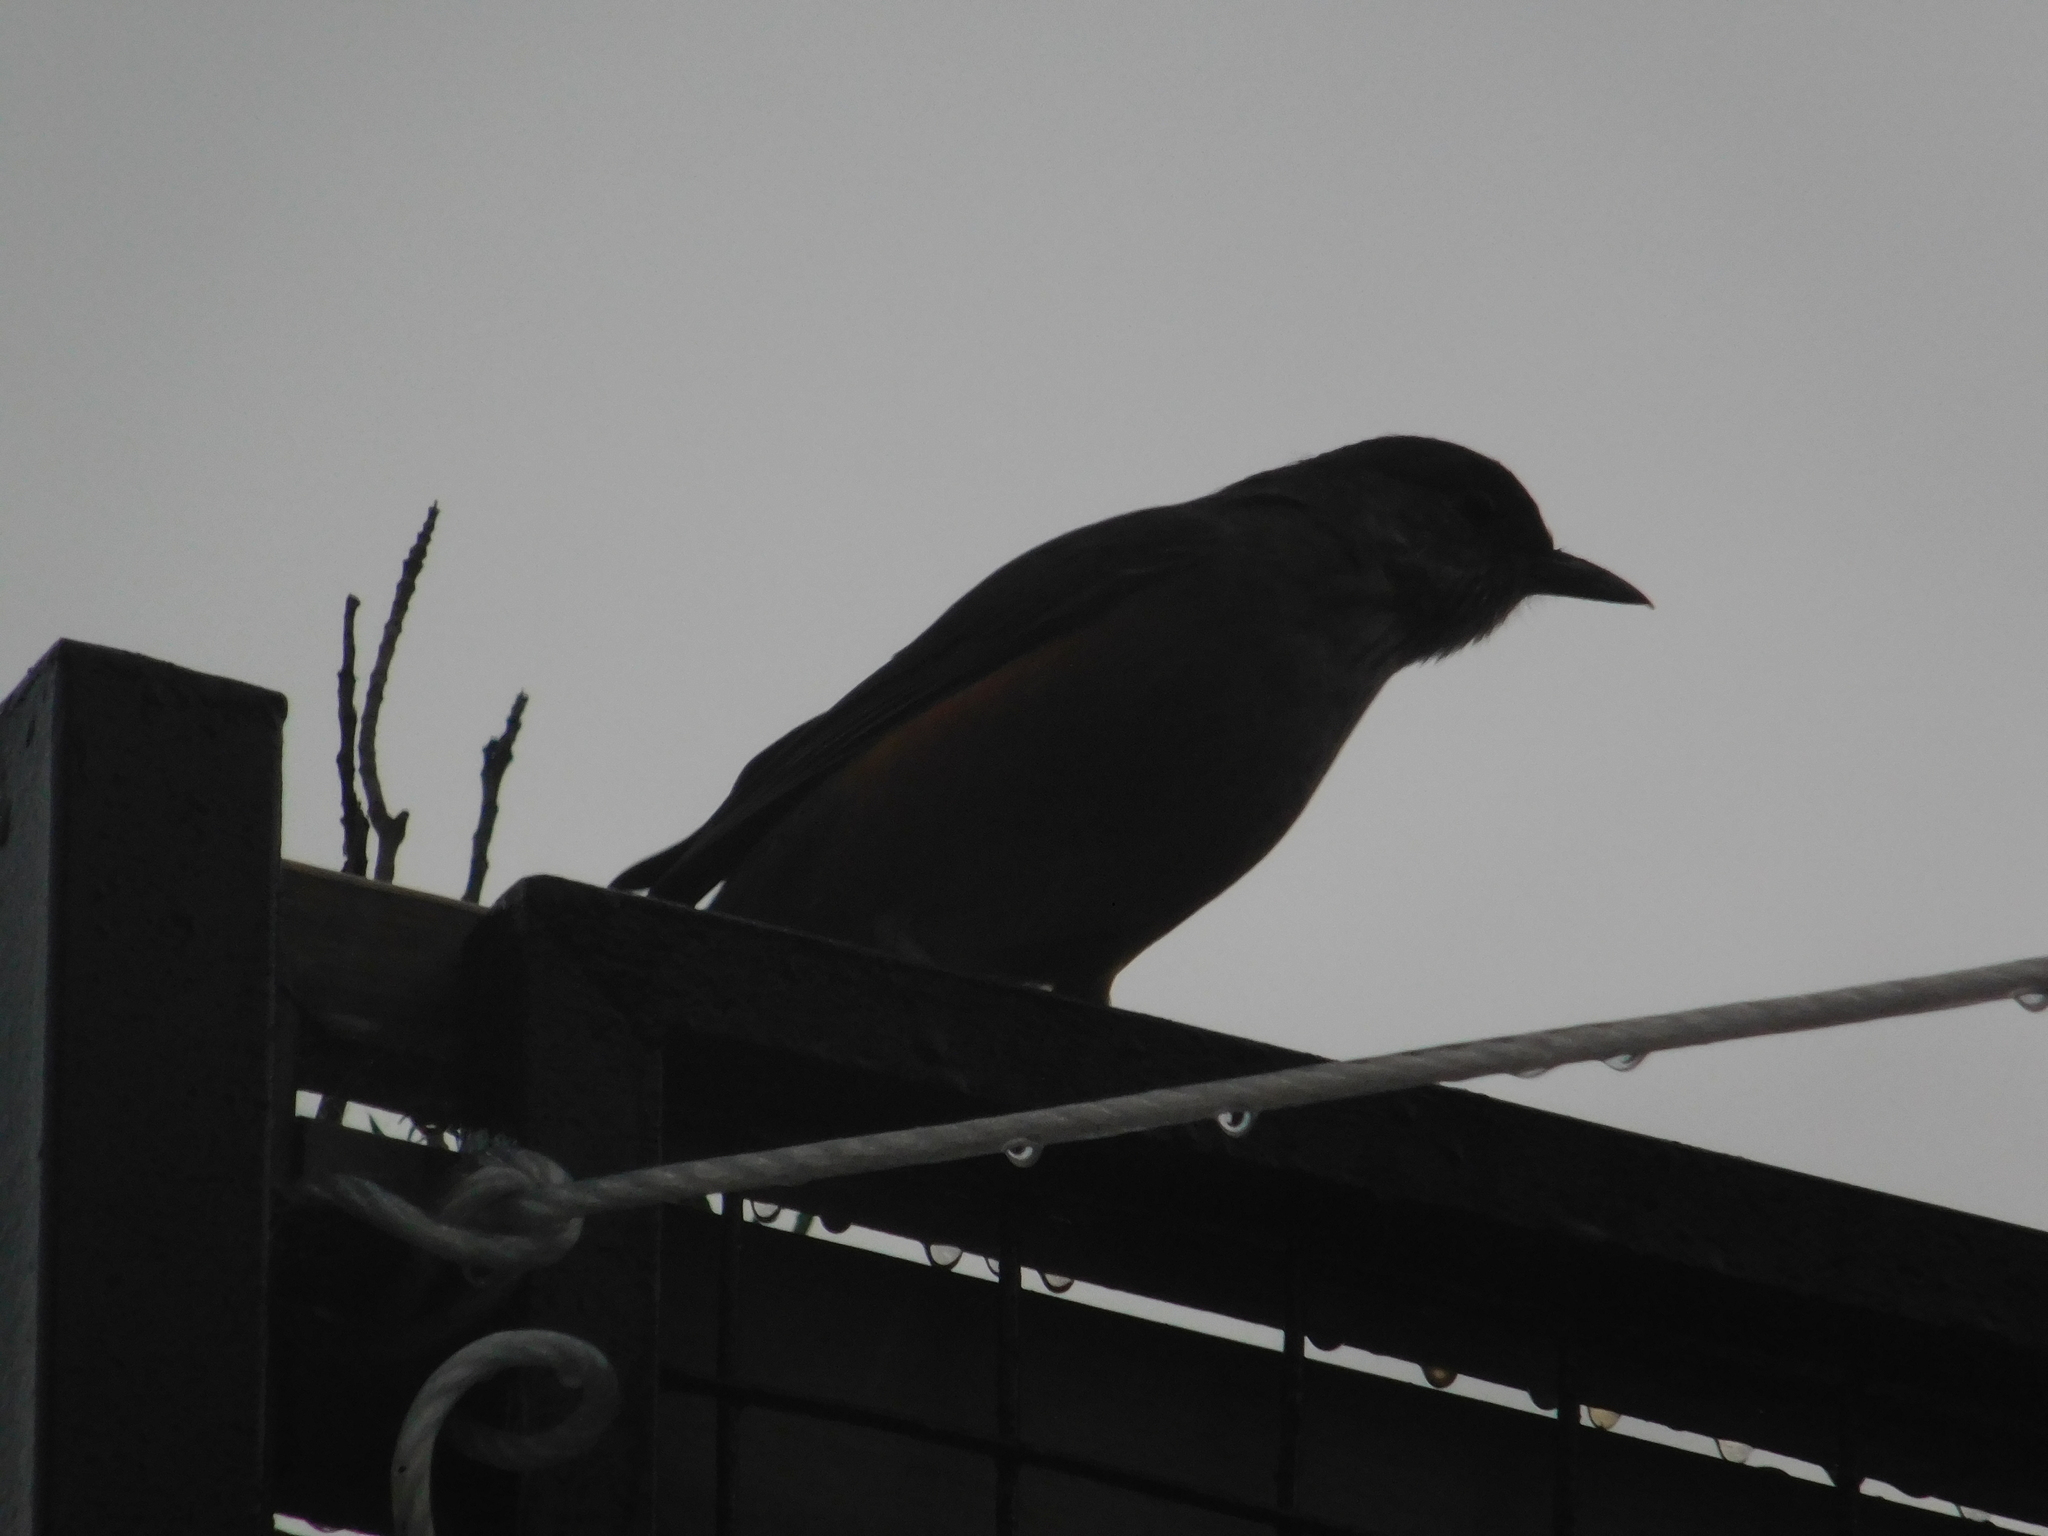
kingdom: Animalia
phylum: Chordata
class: Aves
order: Passeriformes
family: Turdidae
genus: Turdus
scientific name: Turdus rufiventris
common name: Rufous-bellied thrush
